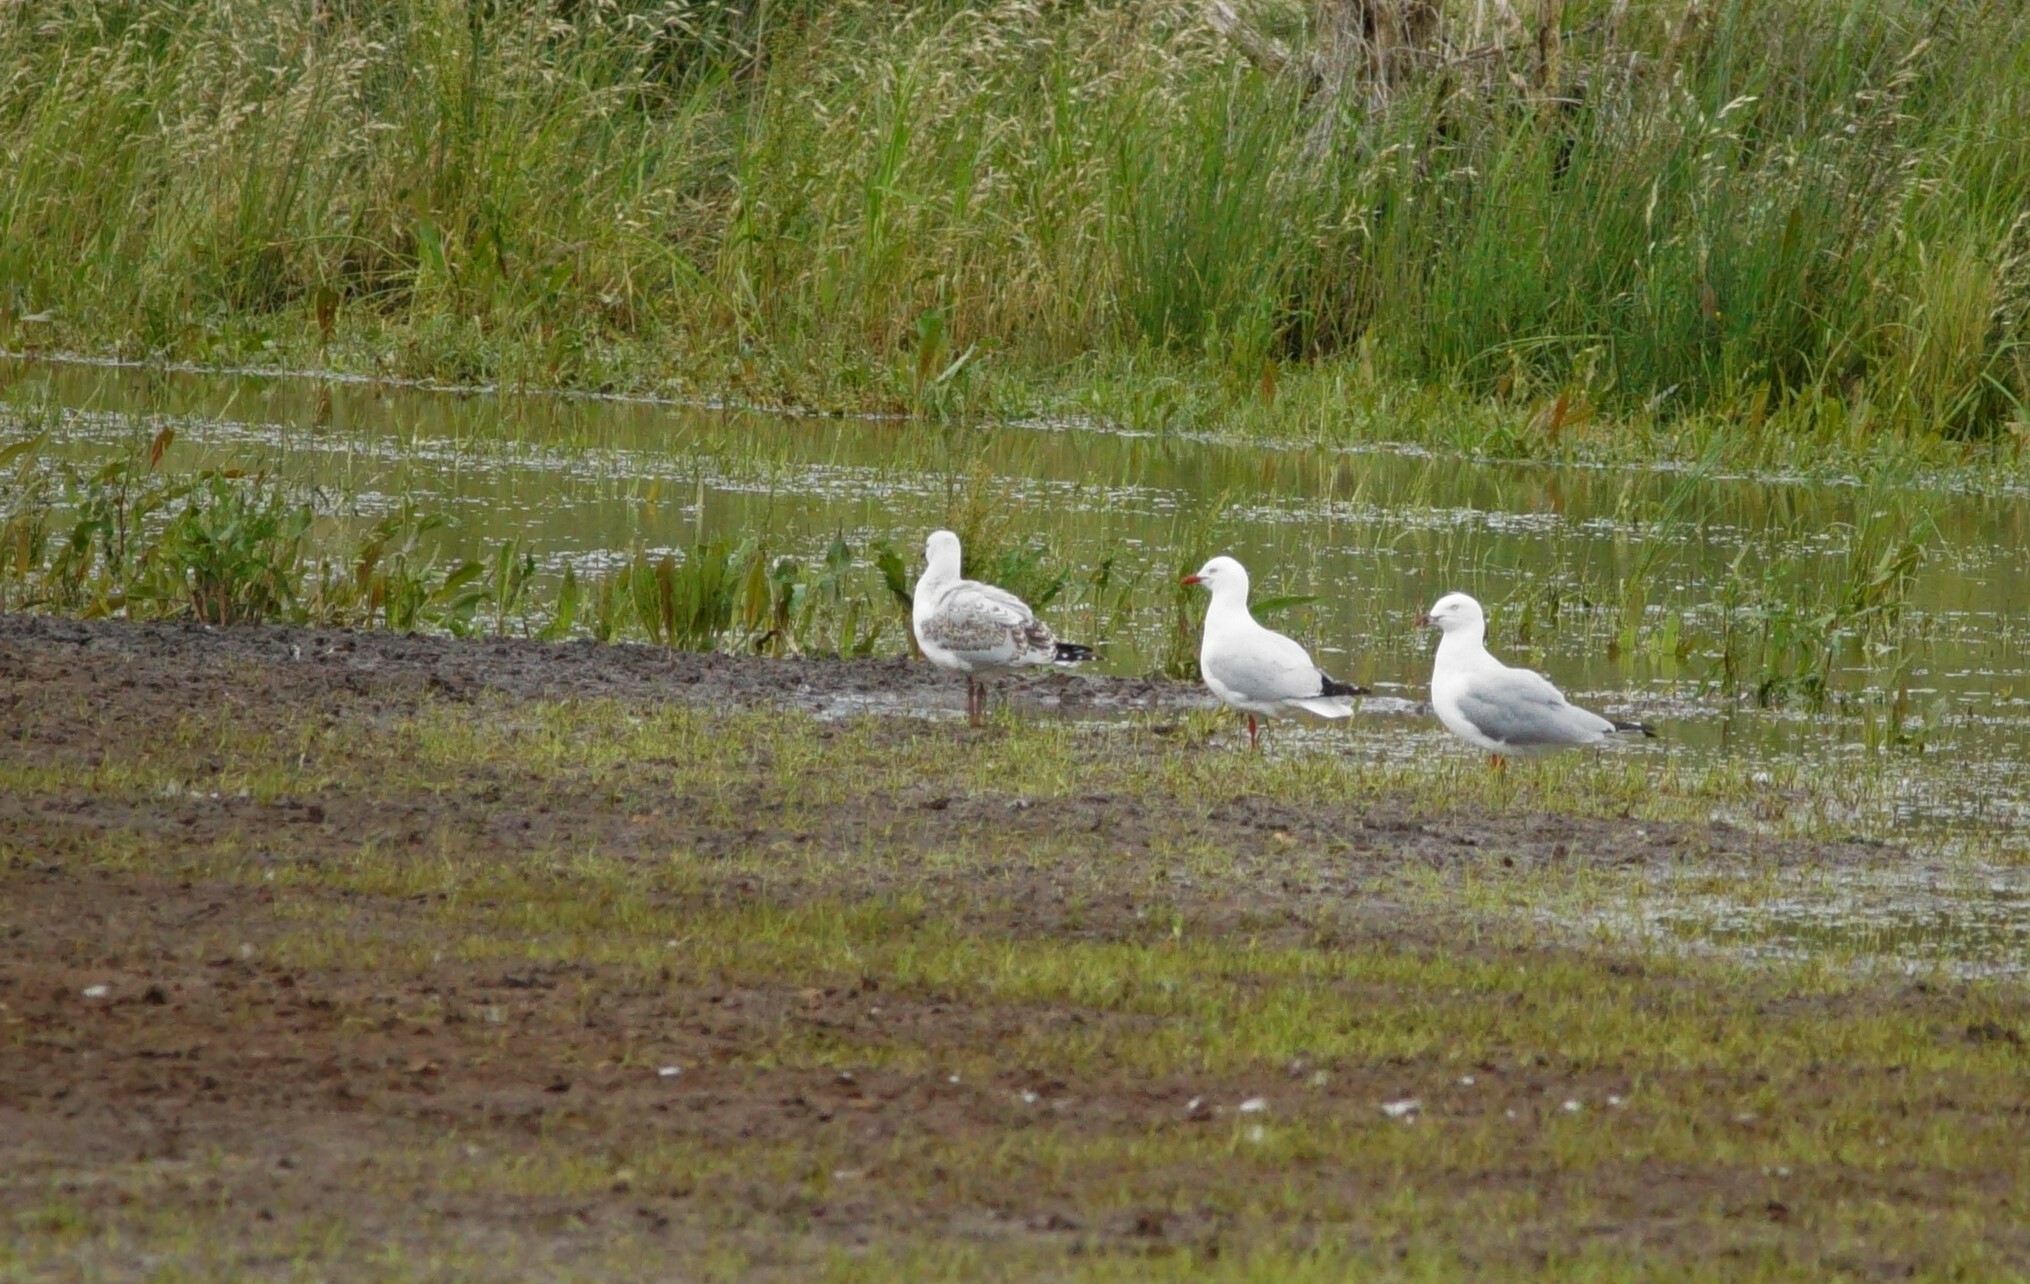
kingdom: Animalia
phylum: Chordata
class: Aves
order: Charadriiformes
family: Laridae
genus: Chroicocephalus
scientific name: Chroicocephalus novaehollandiae
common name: Silver gull
